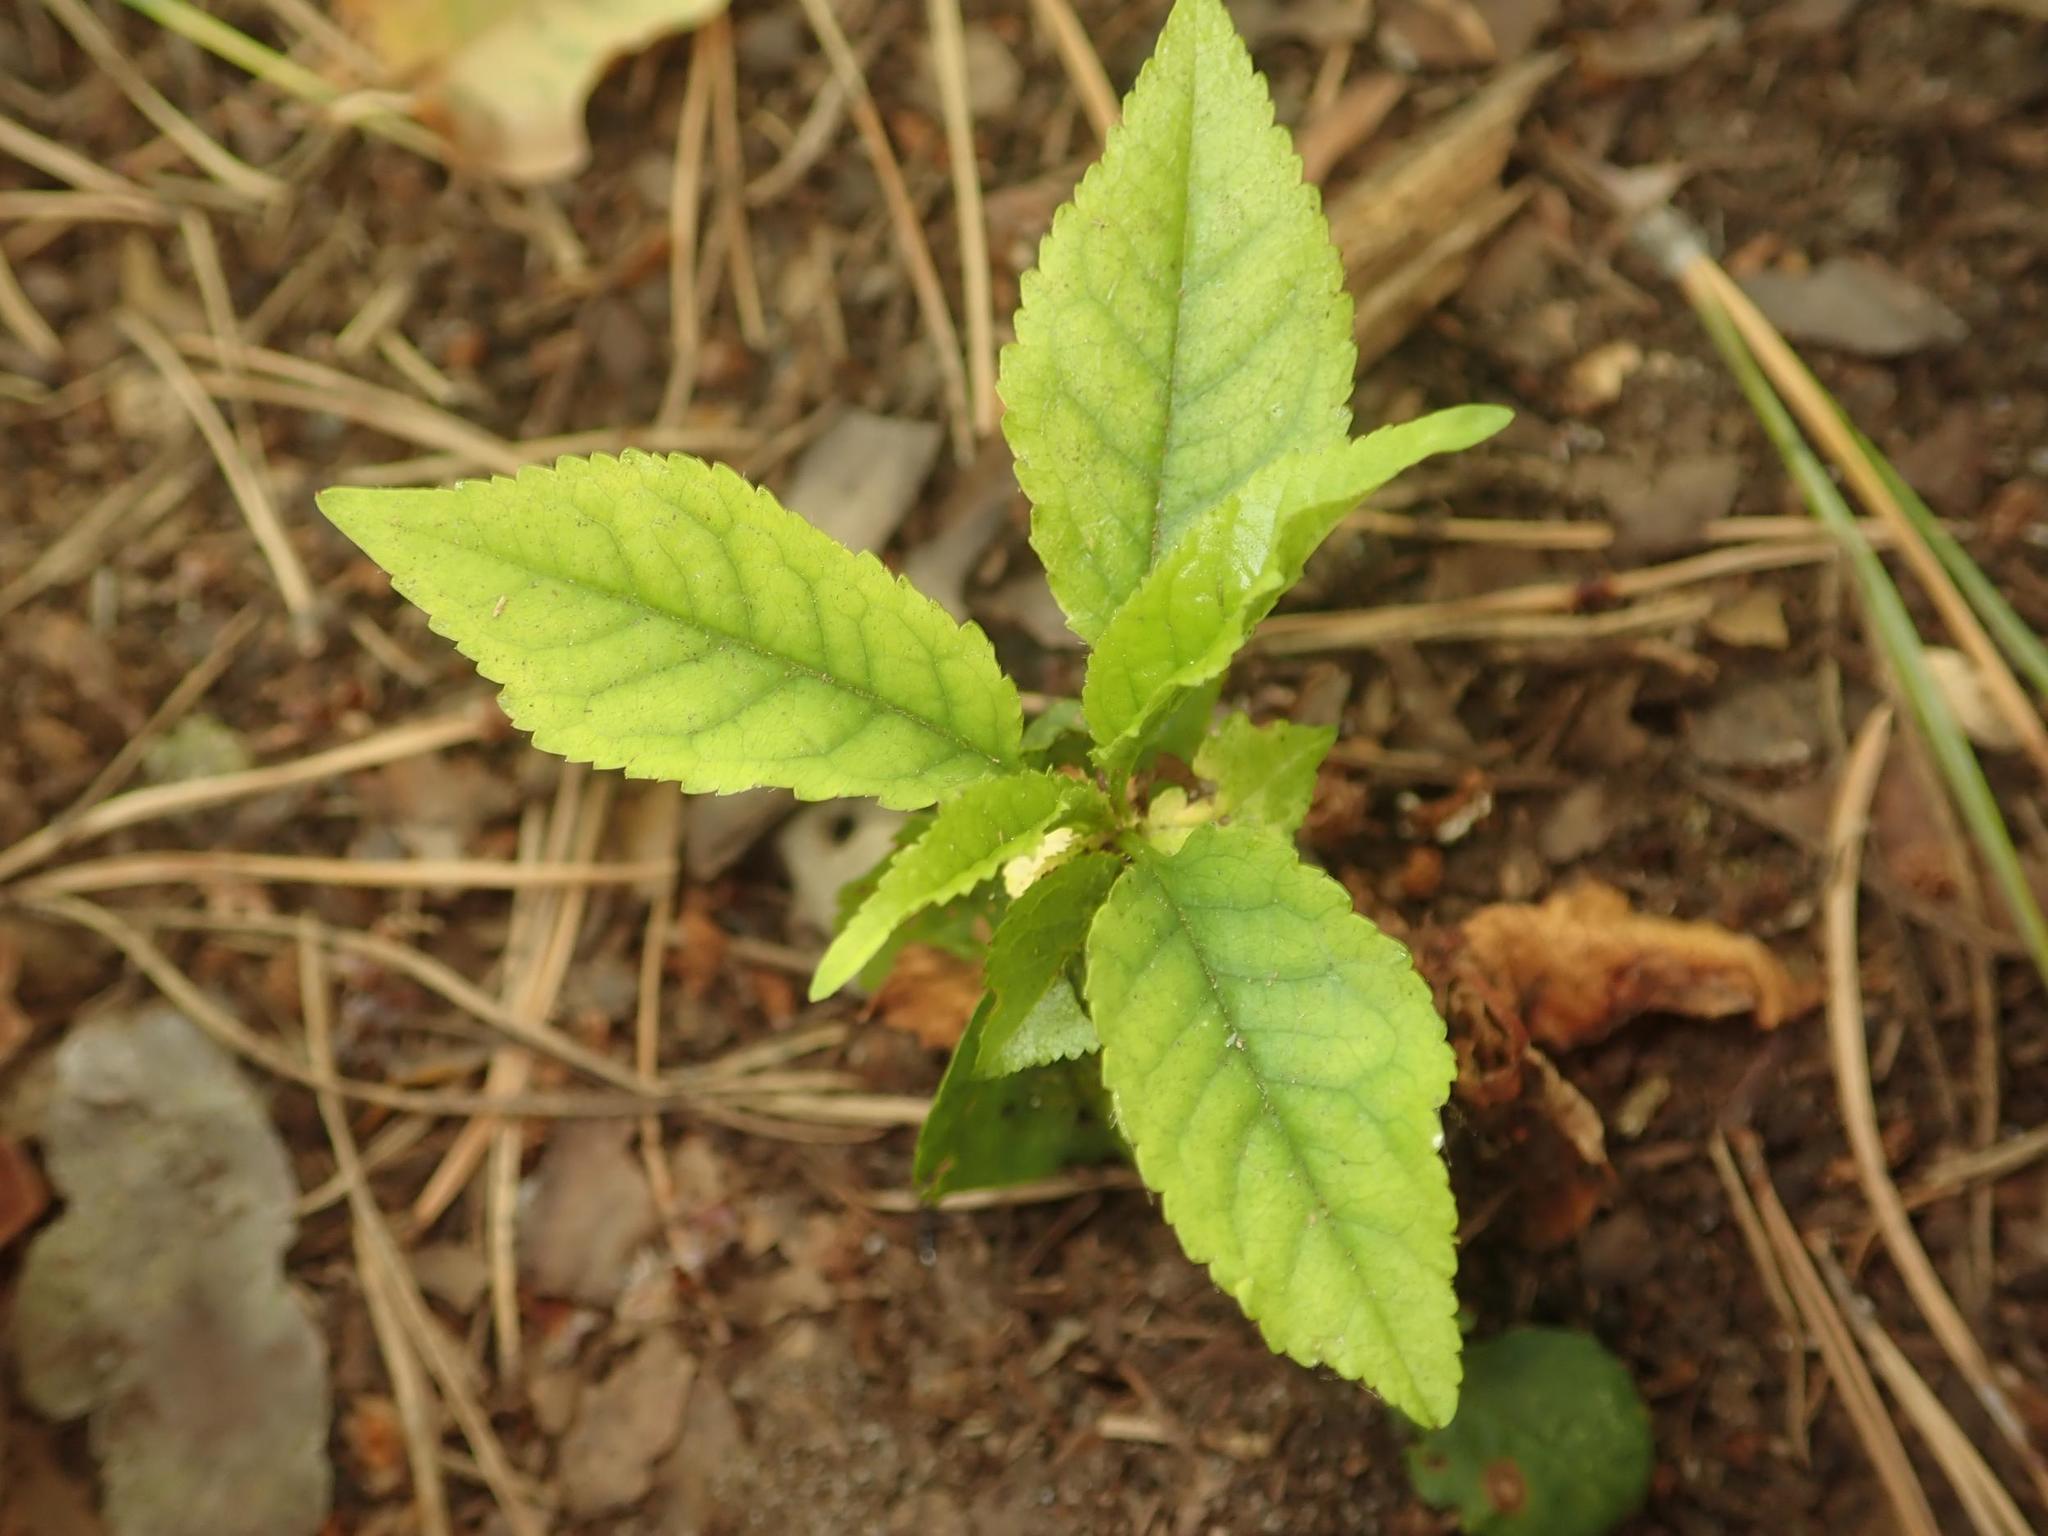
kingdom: Plantae
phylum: Tracheophyta
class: Magnoliopsida
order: Rosales
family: Rosaceae
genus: Prunus
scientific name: Prunus avium
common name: Sweet cherry
